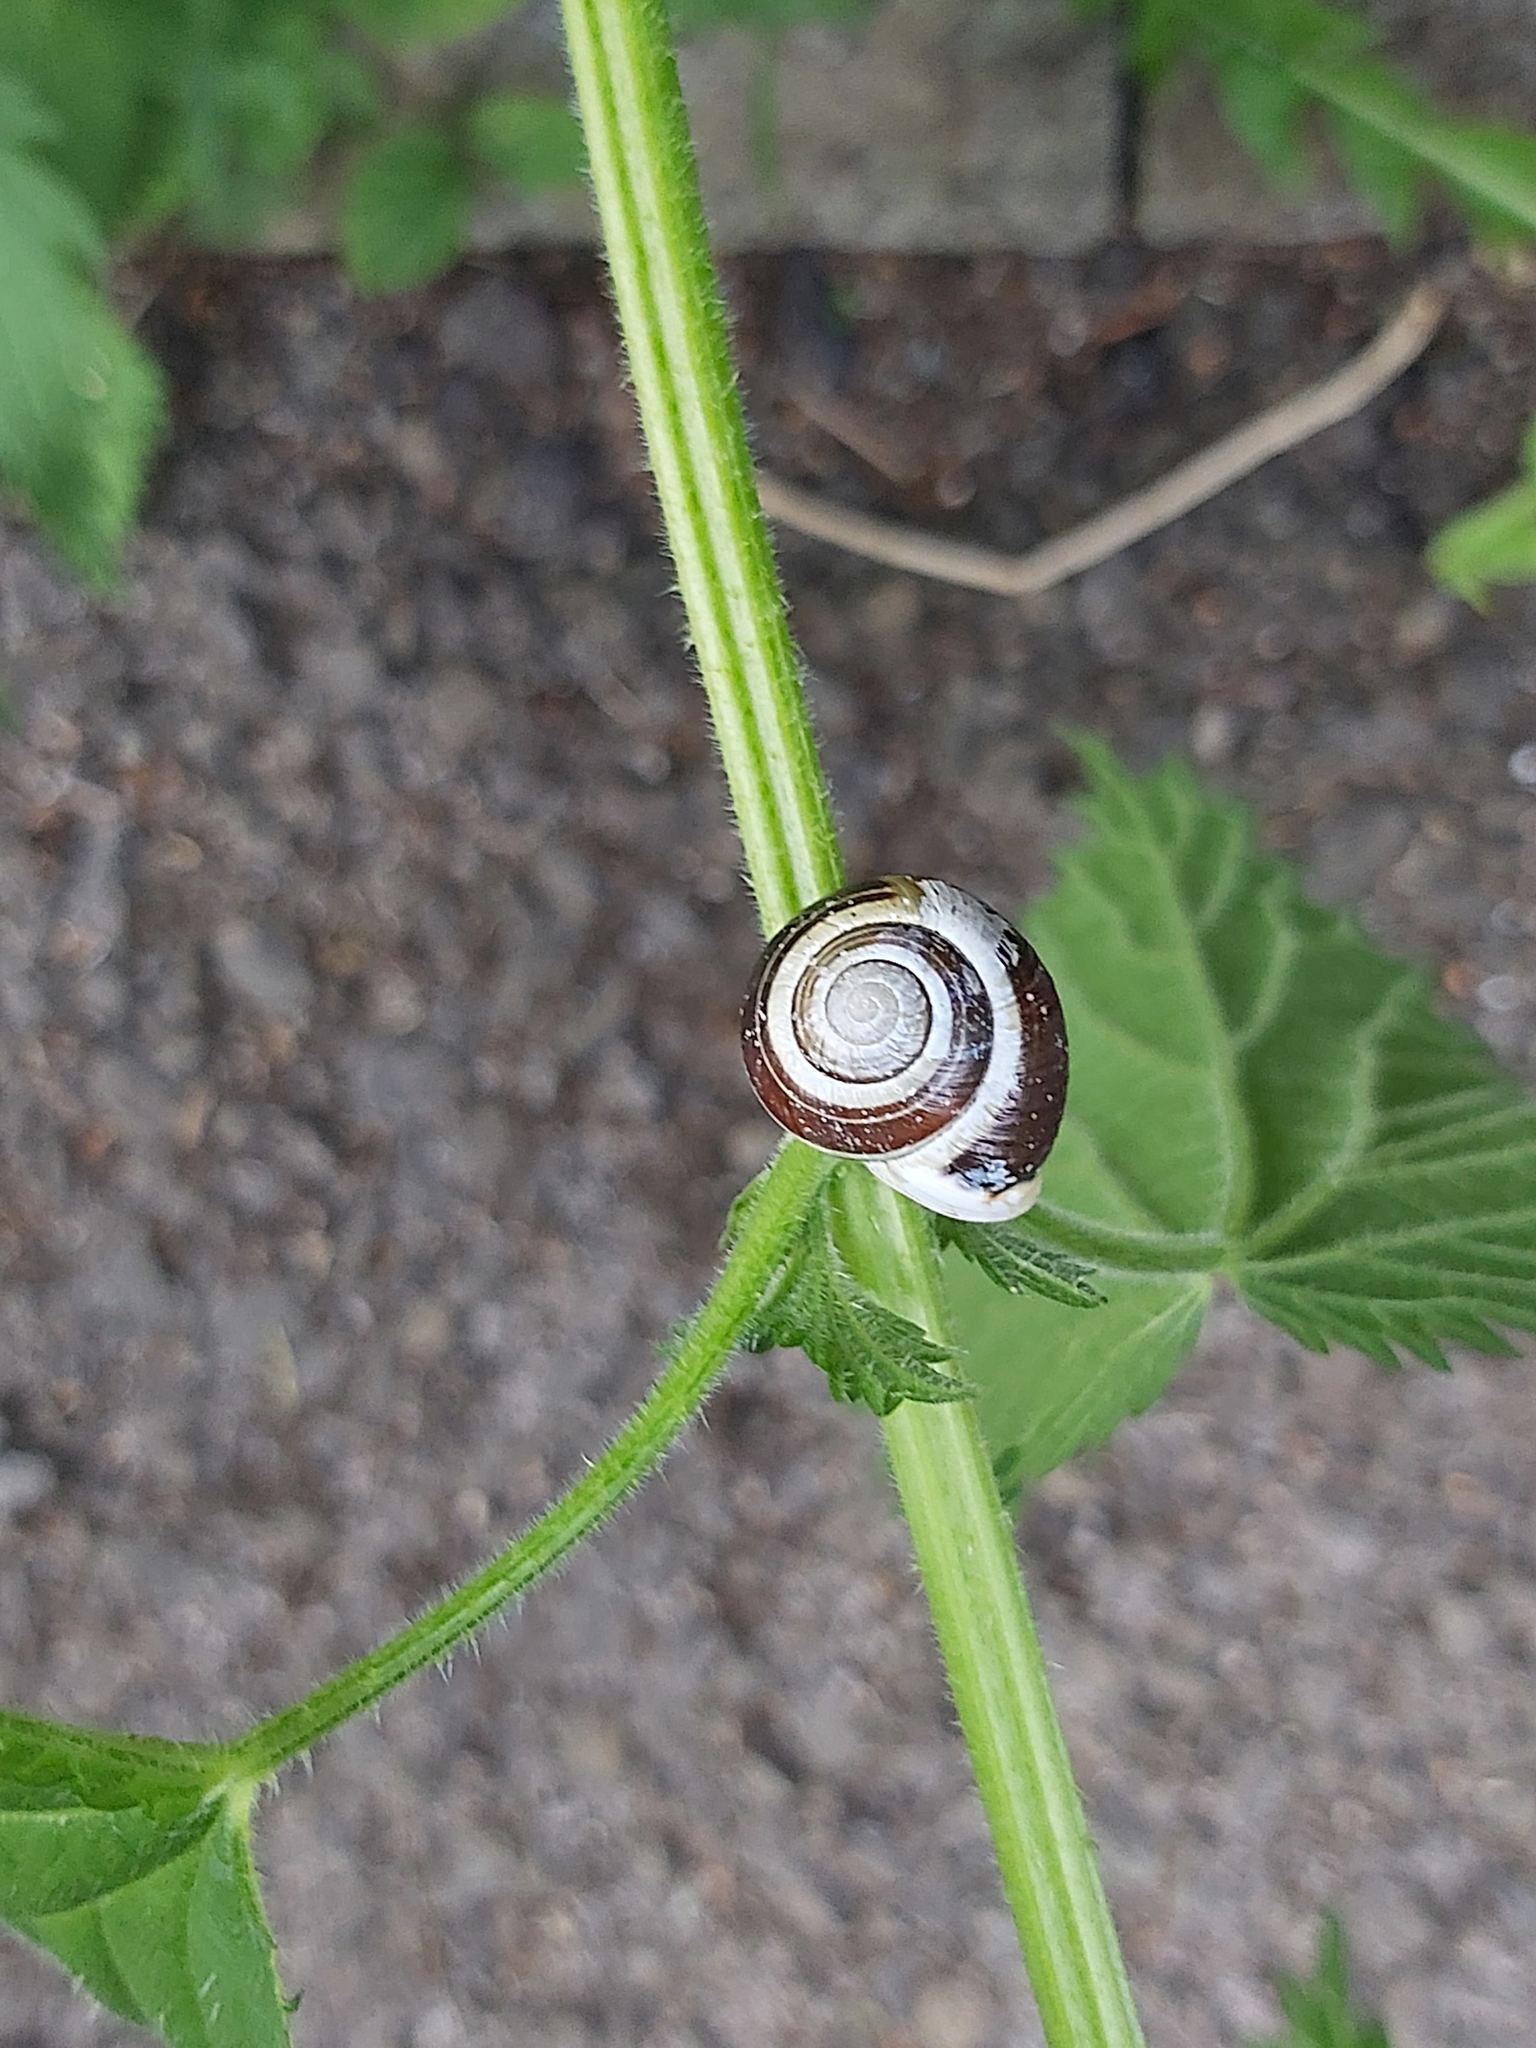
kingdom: Animalia
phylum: Mollusca
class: Gastropoda
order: Stylommatophora
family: Helicidae
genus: Cepaea
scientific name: Cepaea hortensis
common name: White-lip gardensnail
